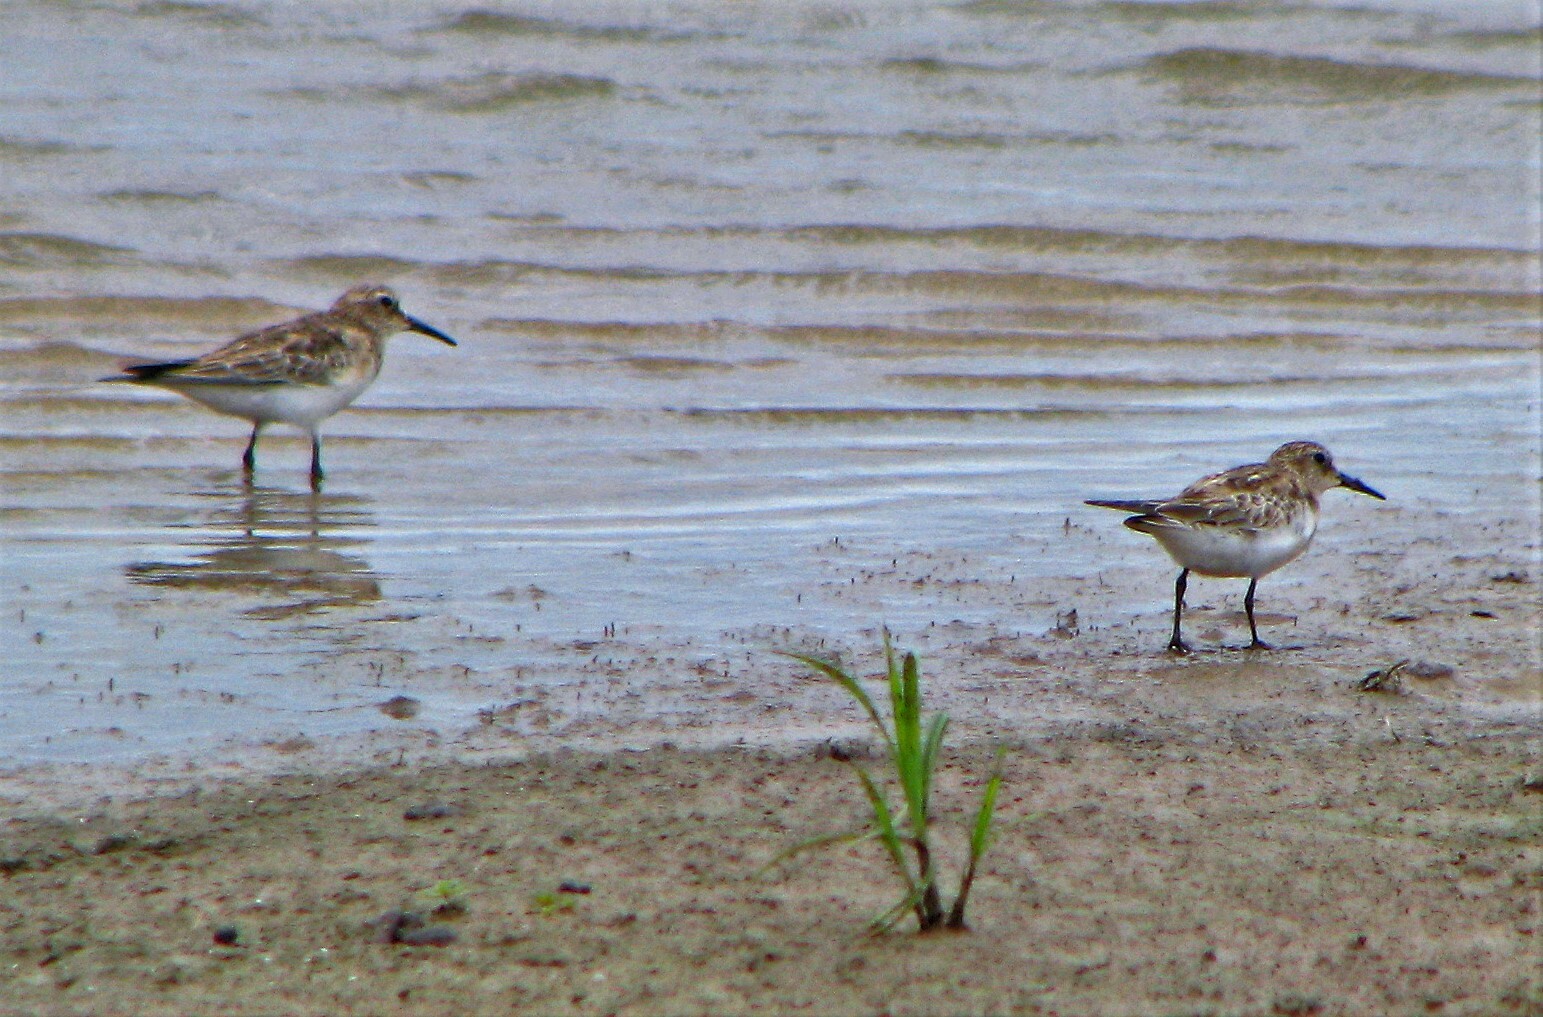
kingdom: Animalia
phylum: Chordata
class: Aves
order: Charadriiformes
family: Scolopacidae
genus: Calidris
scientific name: Calidris bairdii
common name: Baird's sandpiper
